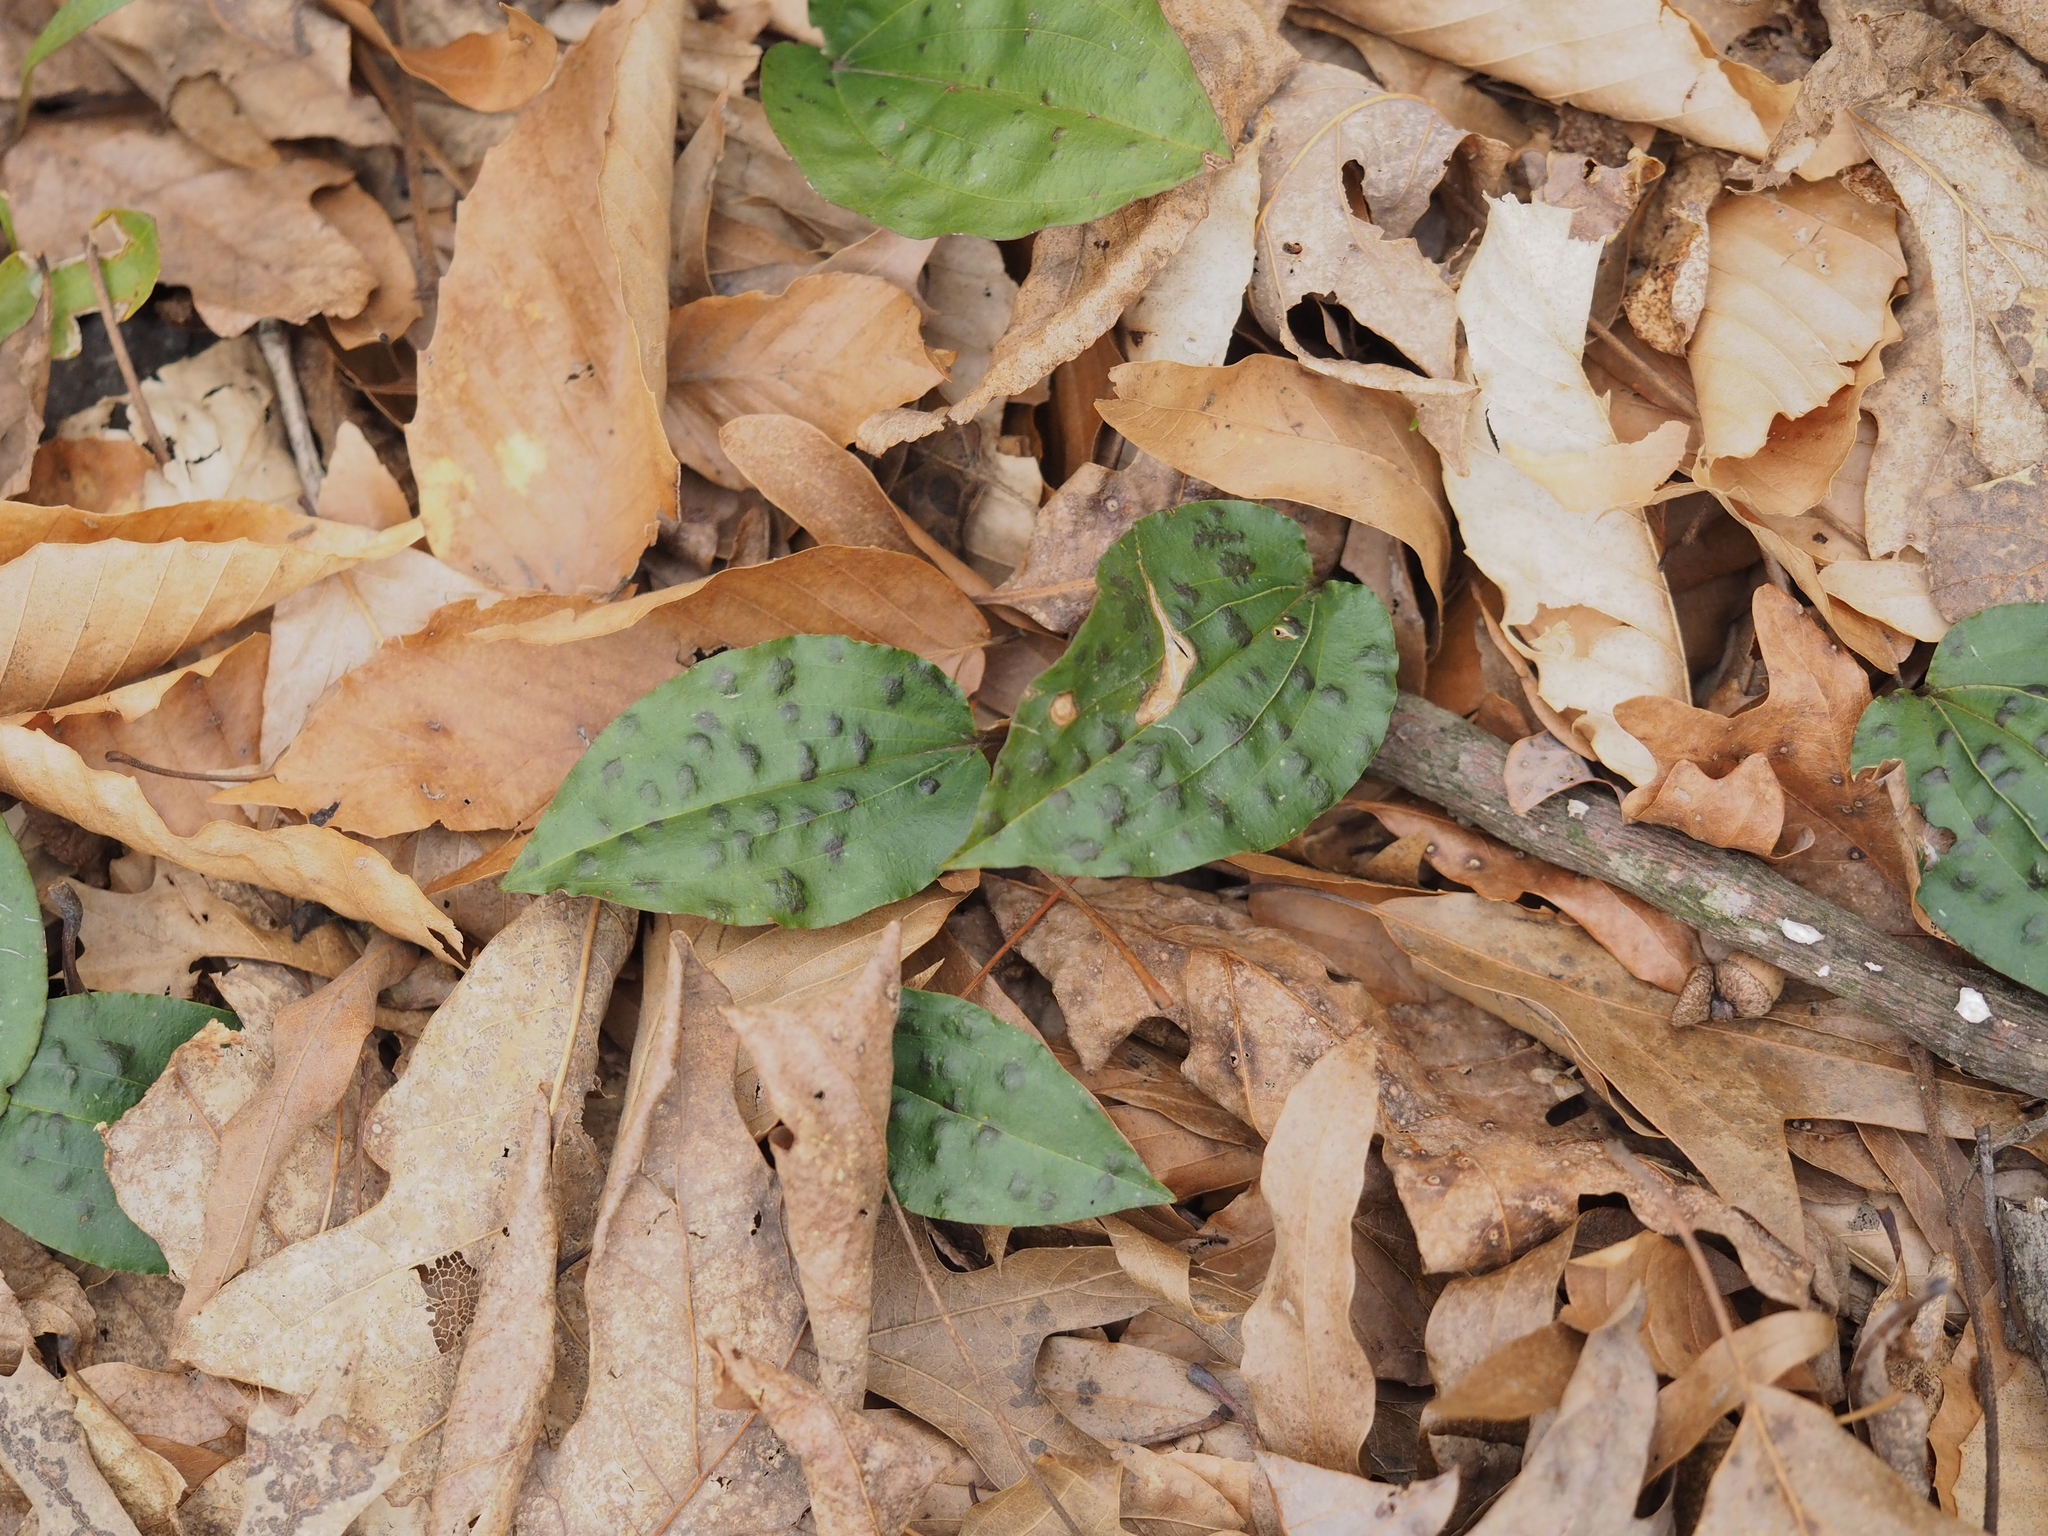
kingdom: Plantae
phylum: Tracheophyta
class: Liliopsida
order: Asparagales
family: Orchidaceae
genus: Tipularia
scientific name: Tipularia discolor
